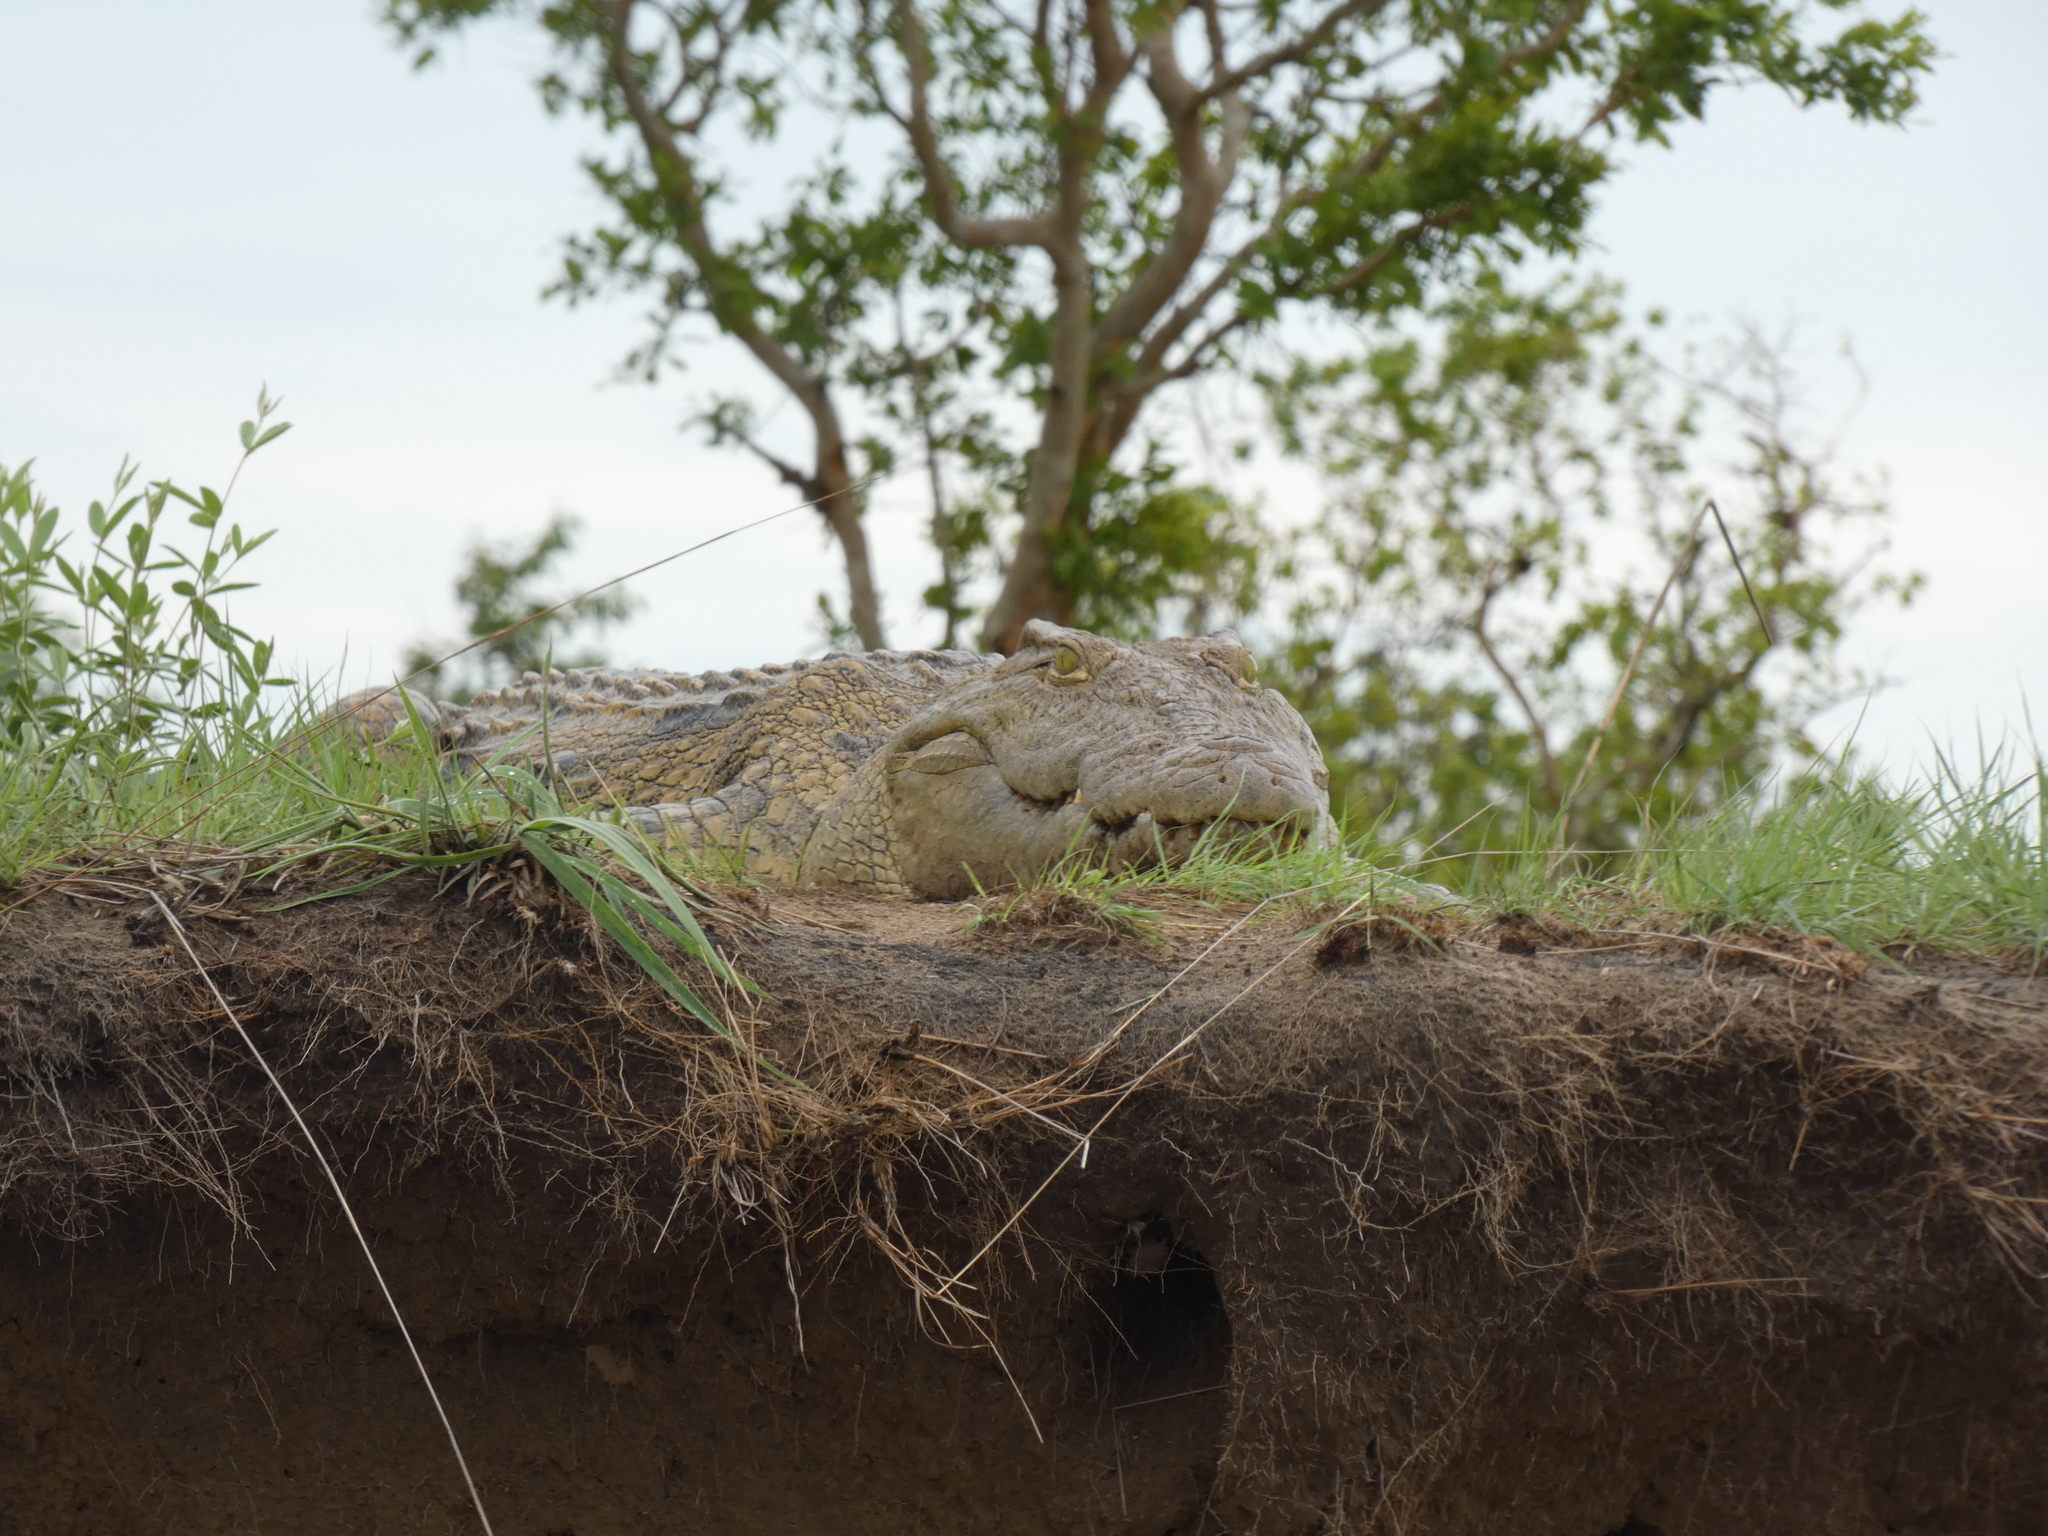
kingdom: Animalia
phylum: Chordata
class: Crocodylia
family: Crocodylidae
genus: Crocodylus
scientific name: Crocodylus niloticus
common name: Nile crocodile
